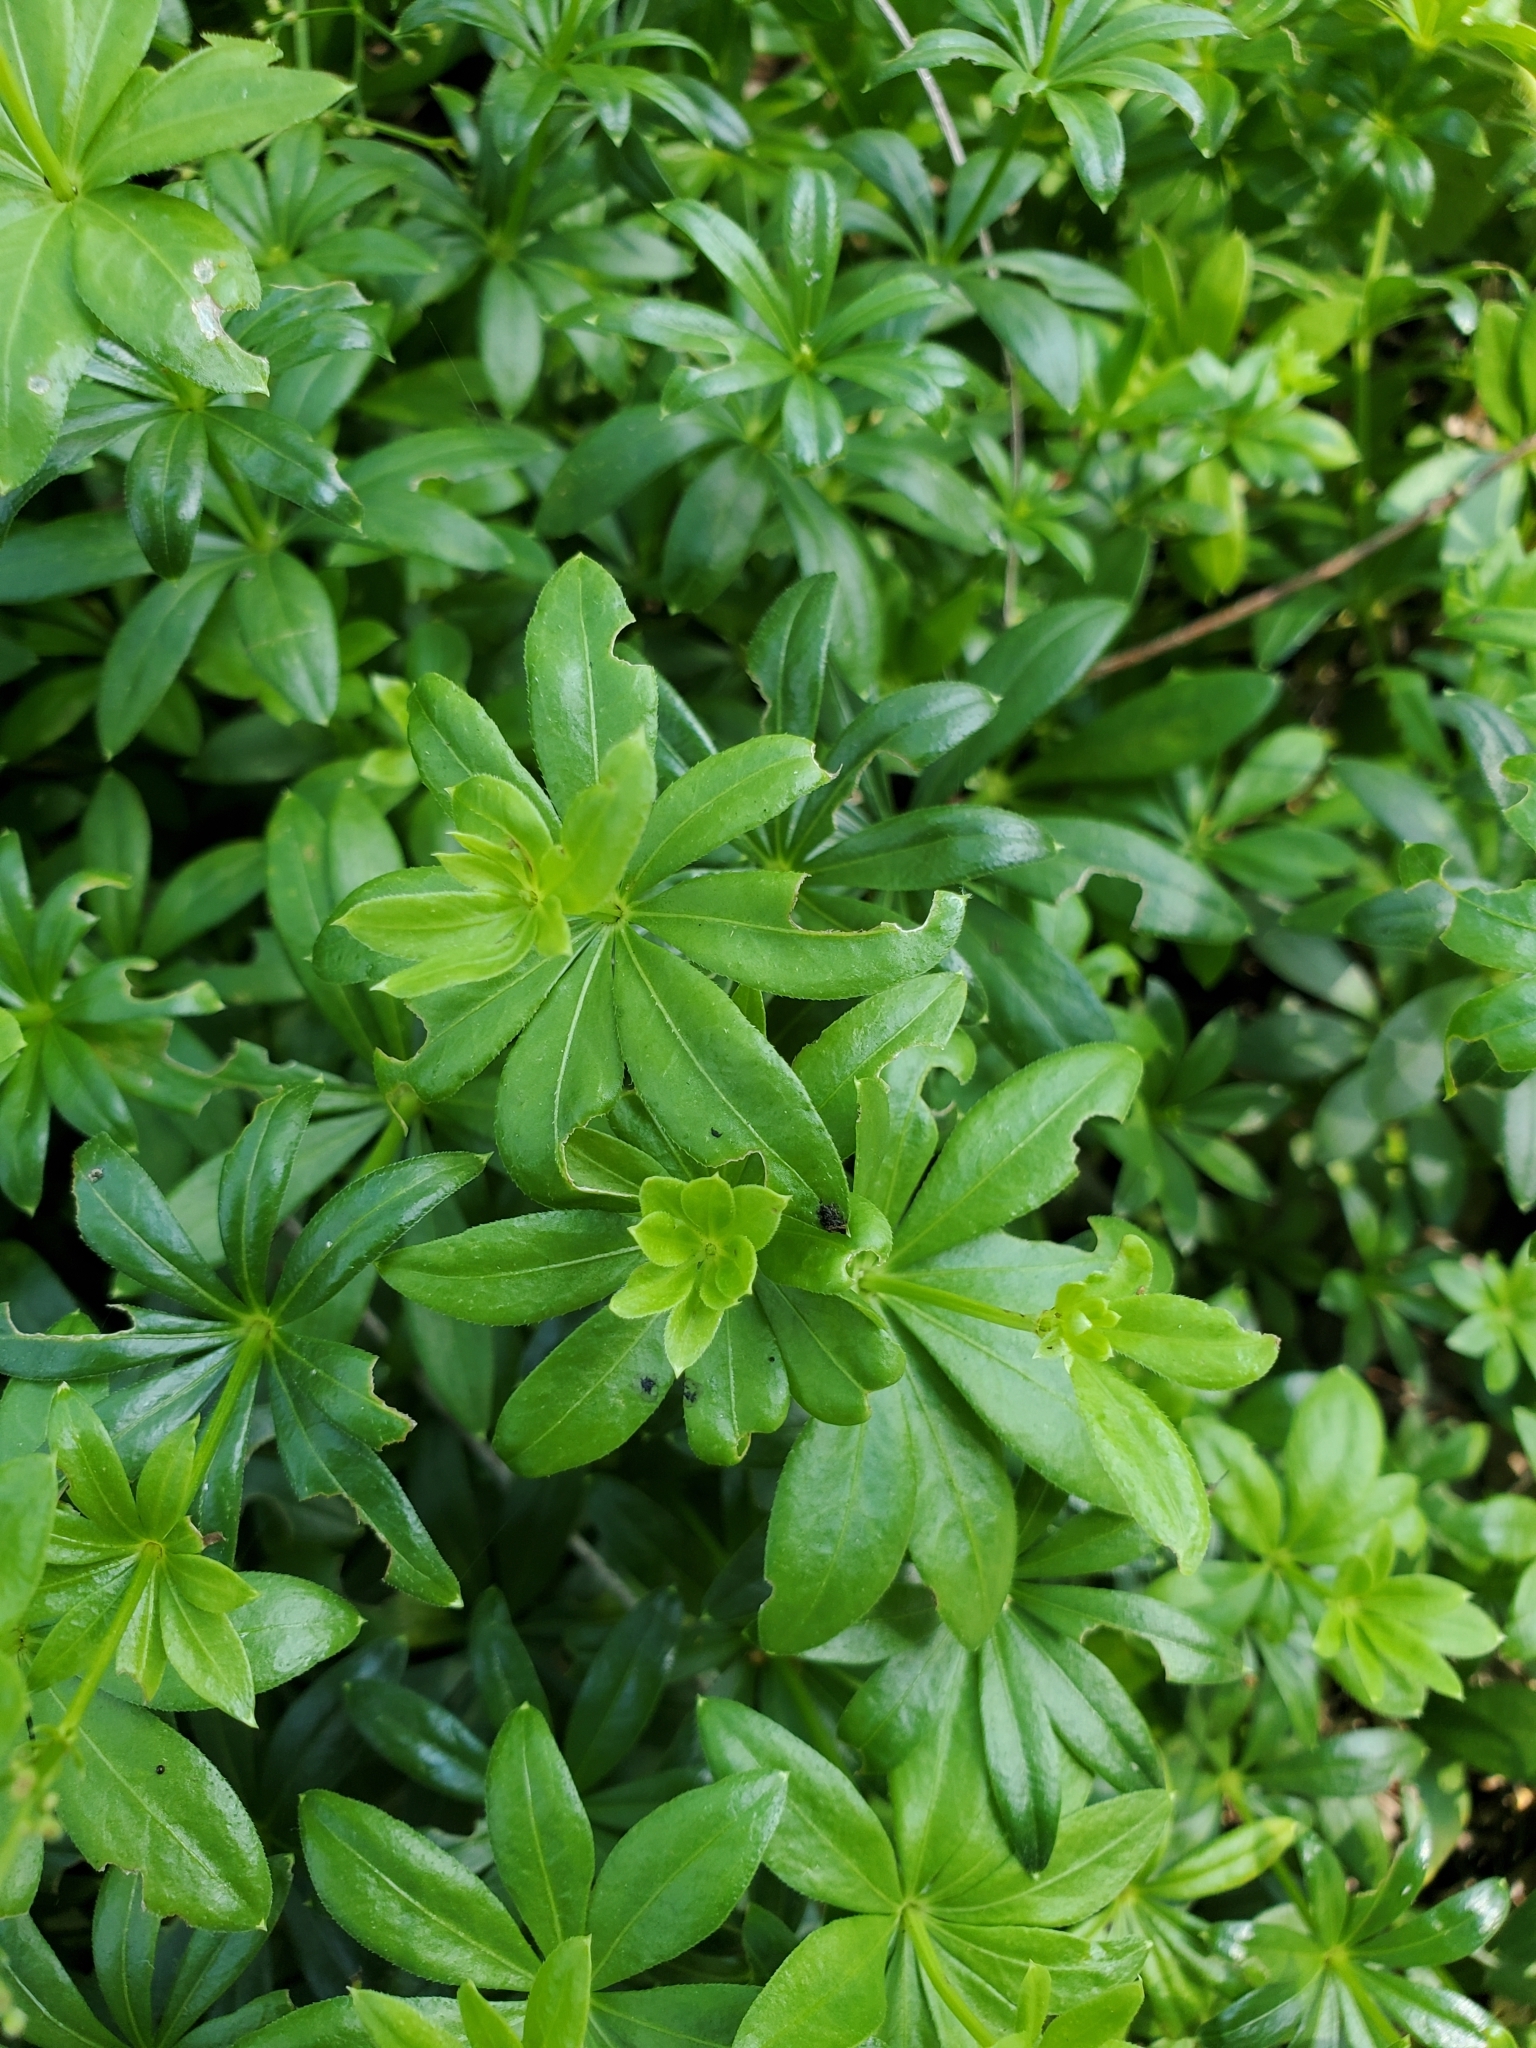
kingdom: Plantae
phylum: Tracheophyta
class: Magnoliopsida
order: Gentianales
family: Rubiaceae
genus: Galium
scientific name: Galium odoratum
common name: Sweet woodruff
